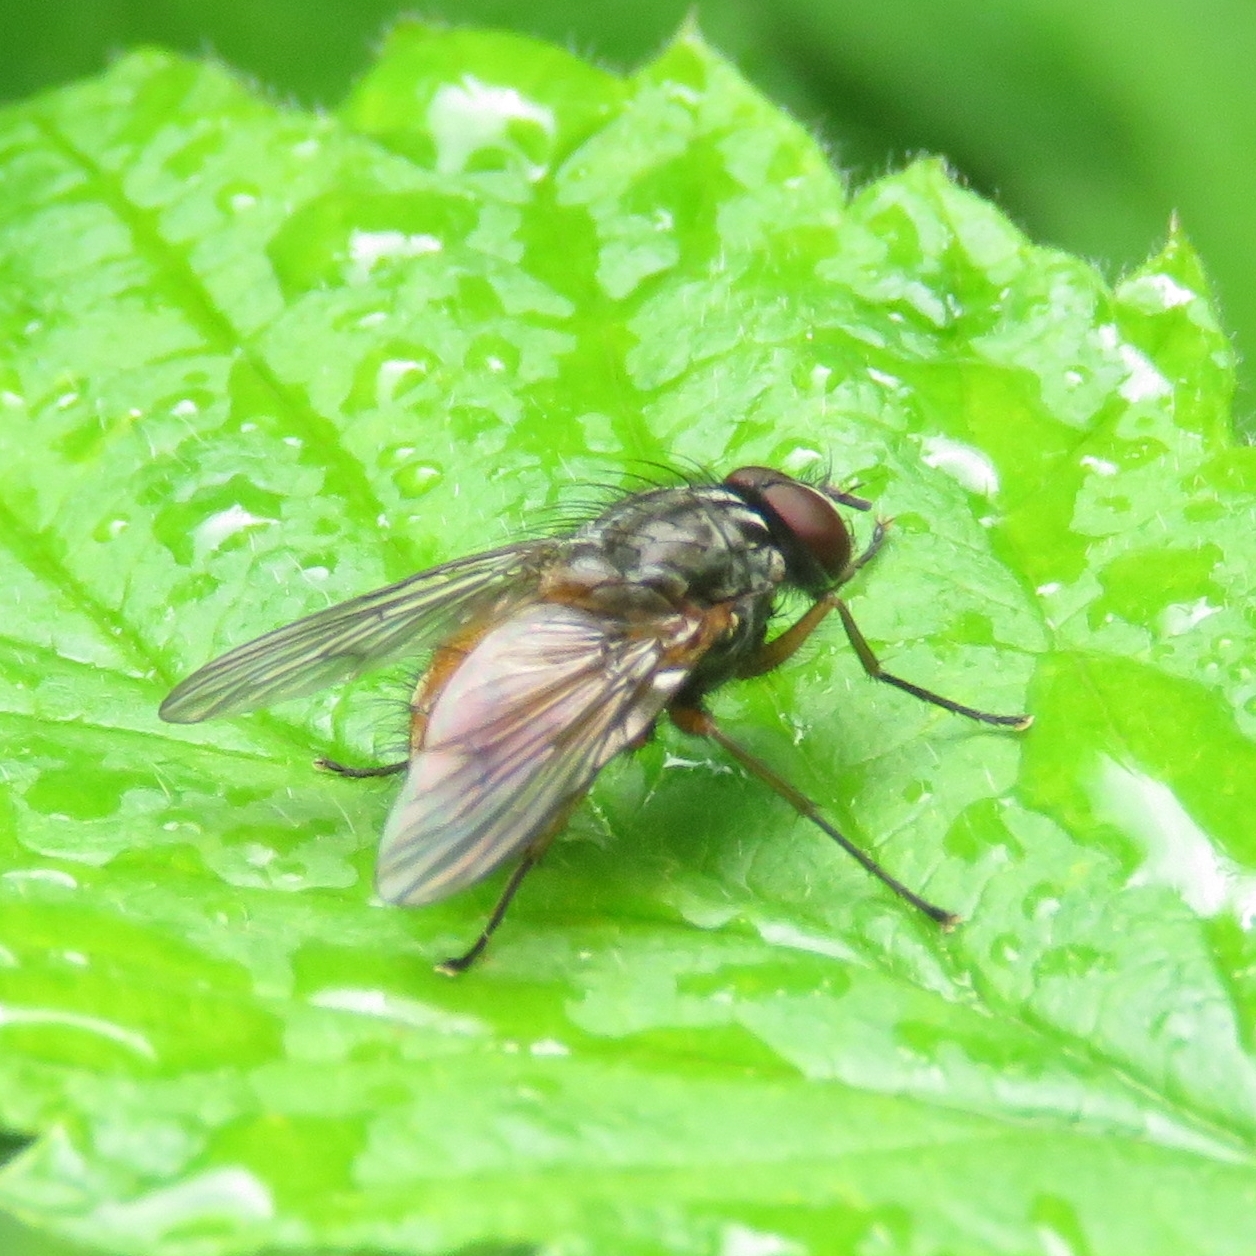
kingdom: Animalia
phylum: Arthropoda
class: Insecta
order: Diptera
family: Muscidae
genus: Phaonia
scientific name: Phaonia subventa
